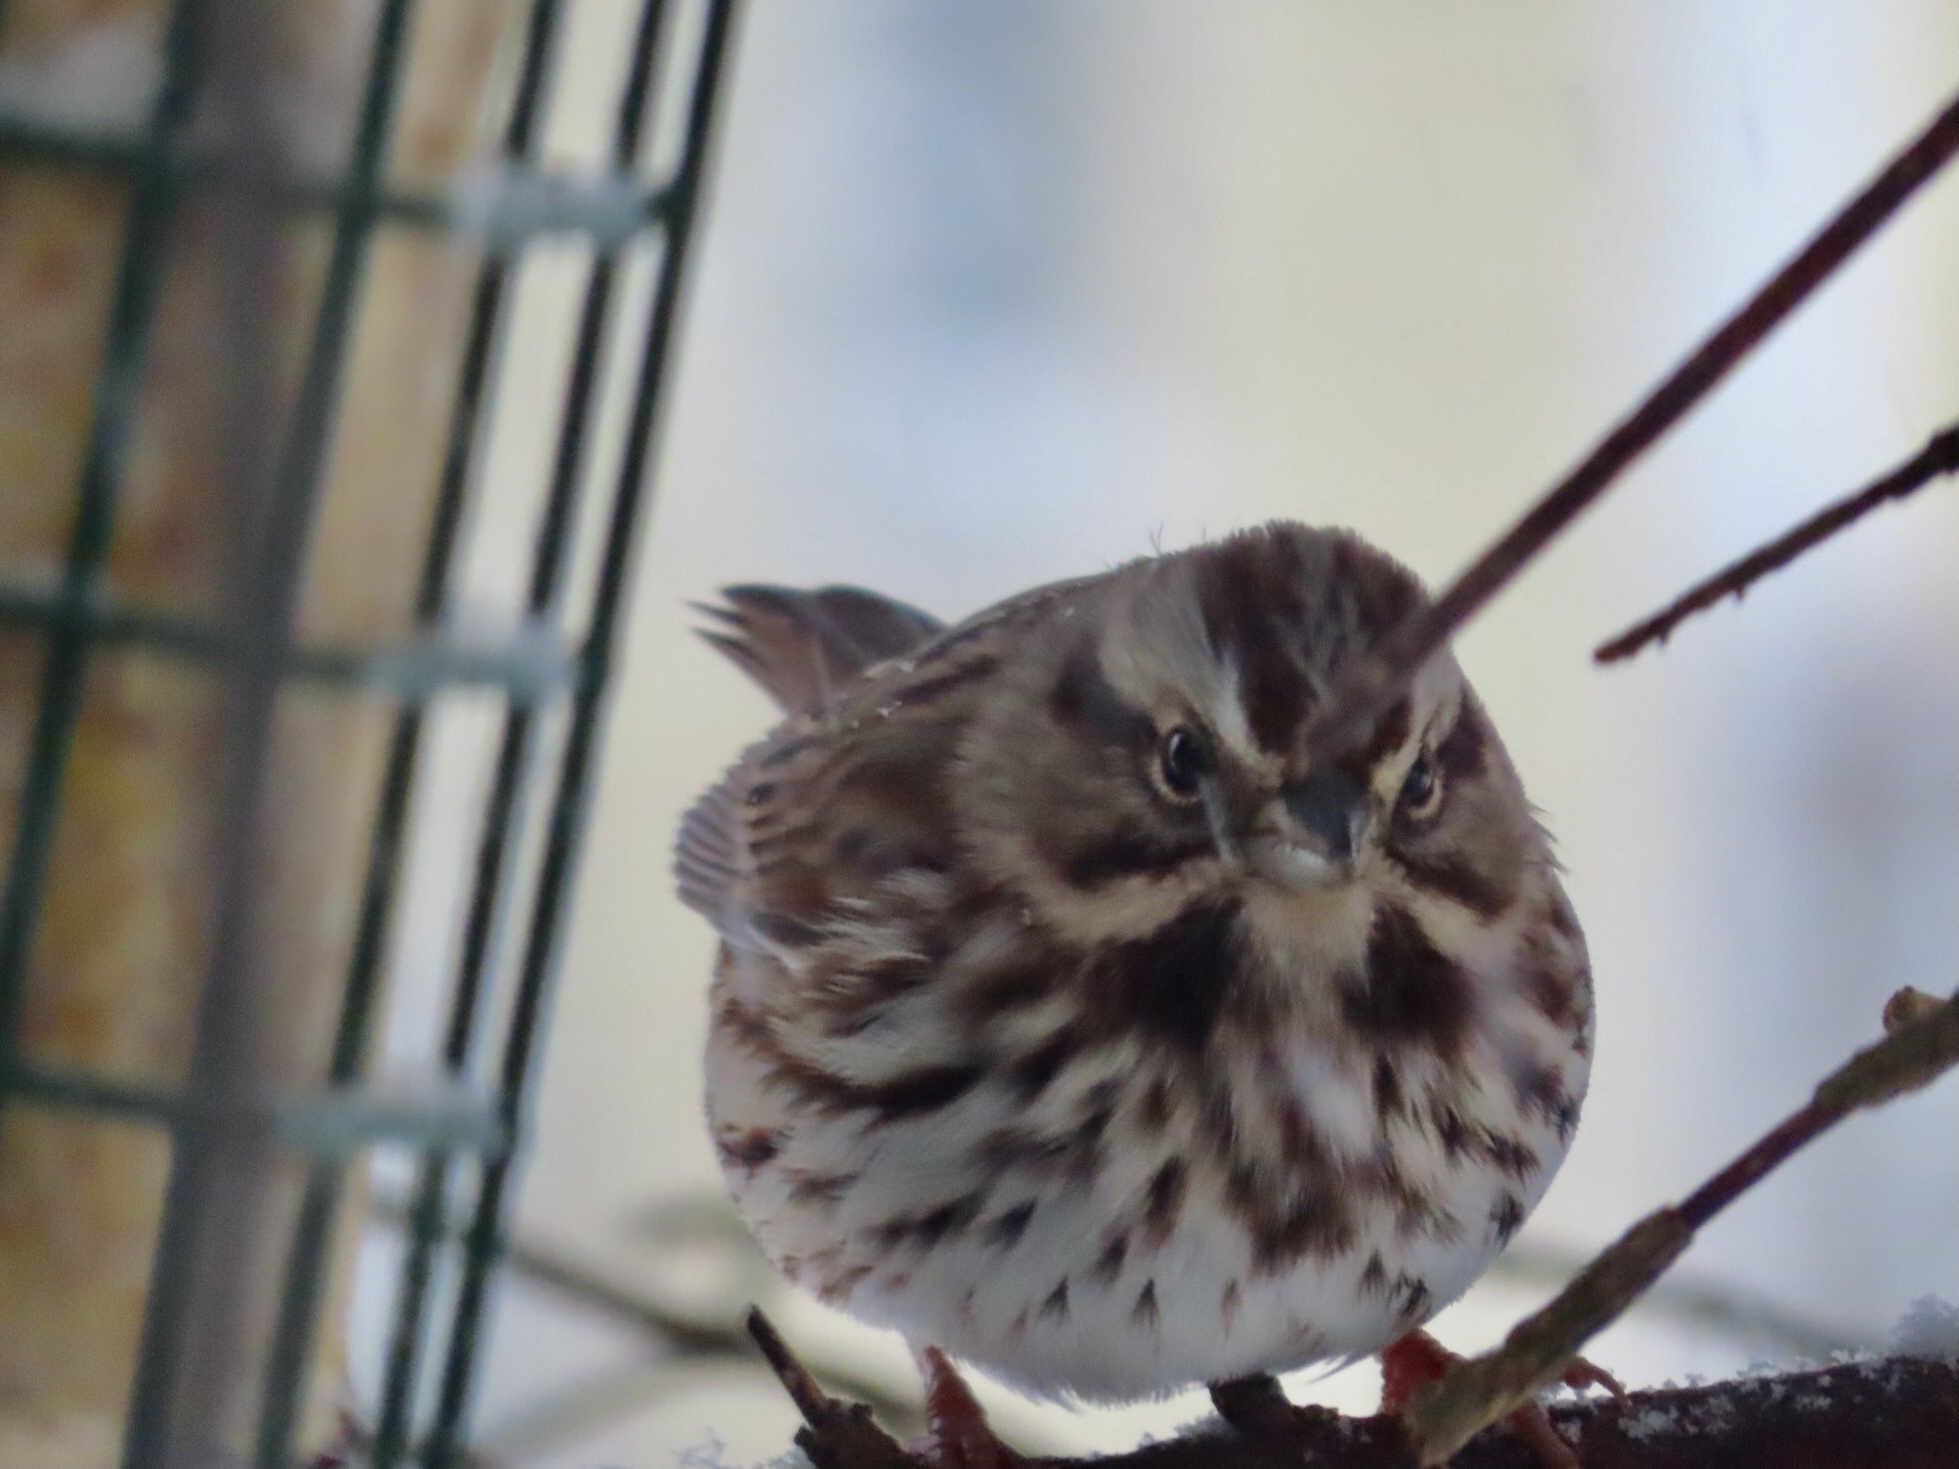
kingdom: Animalia
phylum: Chordata
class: Aves
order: Passeriformes
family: Passerellidae
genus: Melospiza
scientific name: Melospiza melodia
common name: Song sparrow
